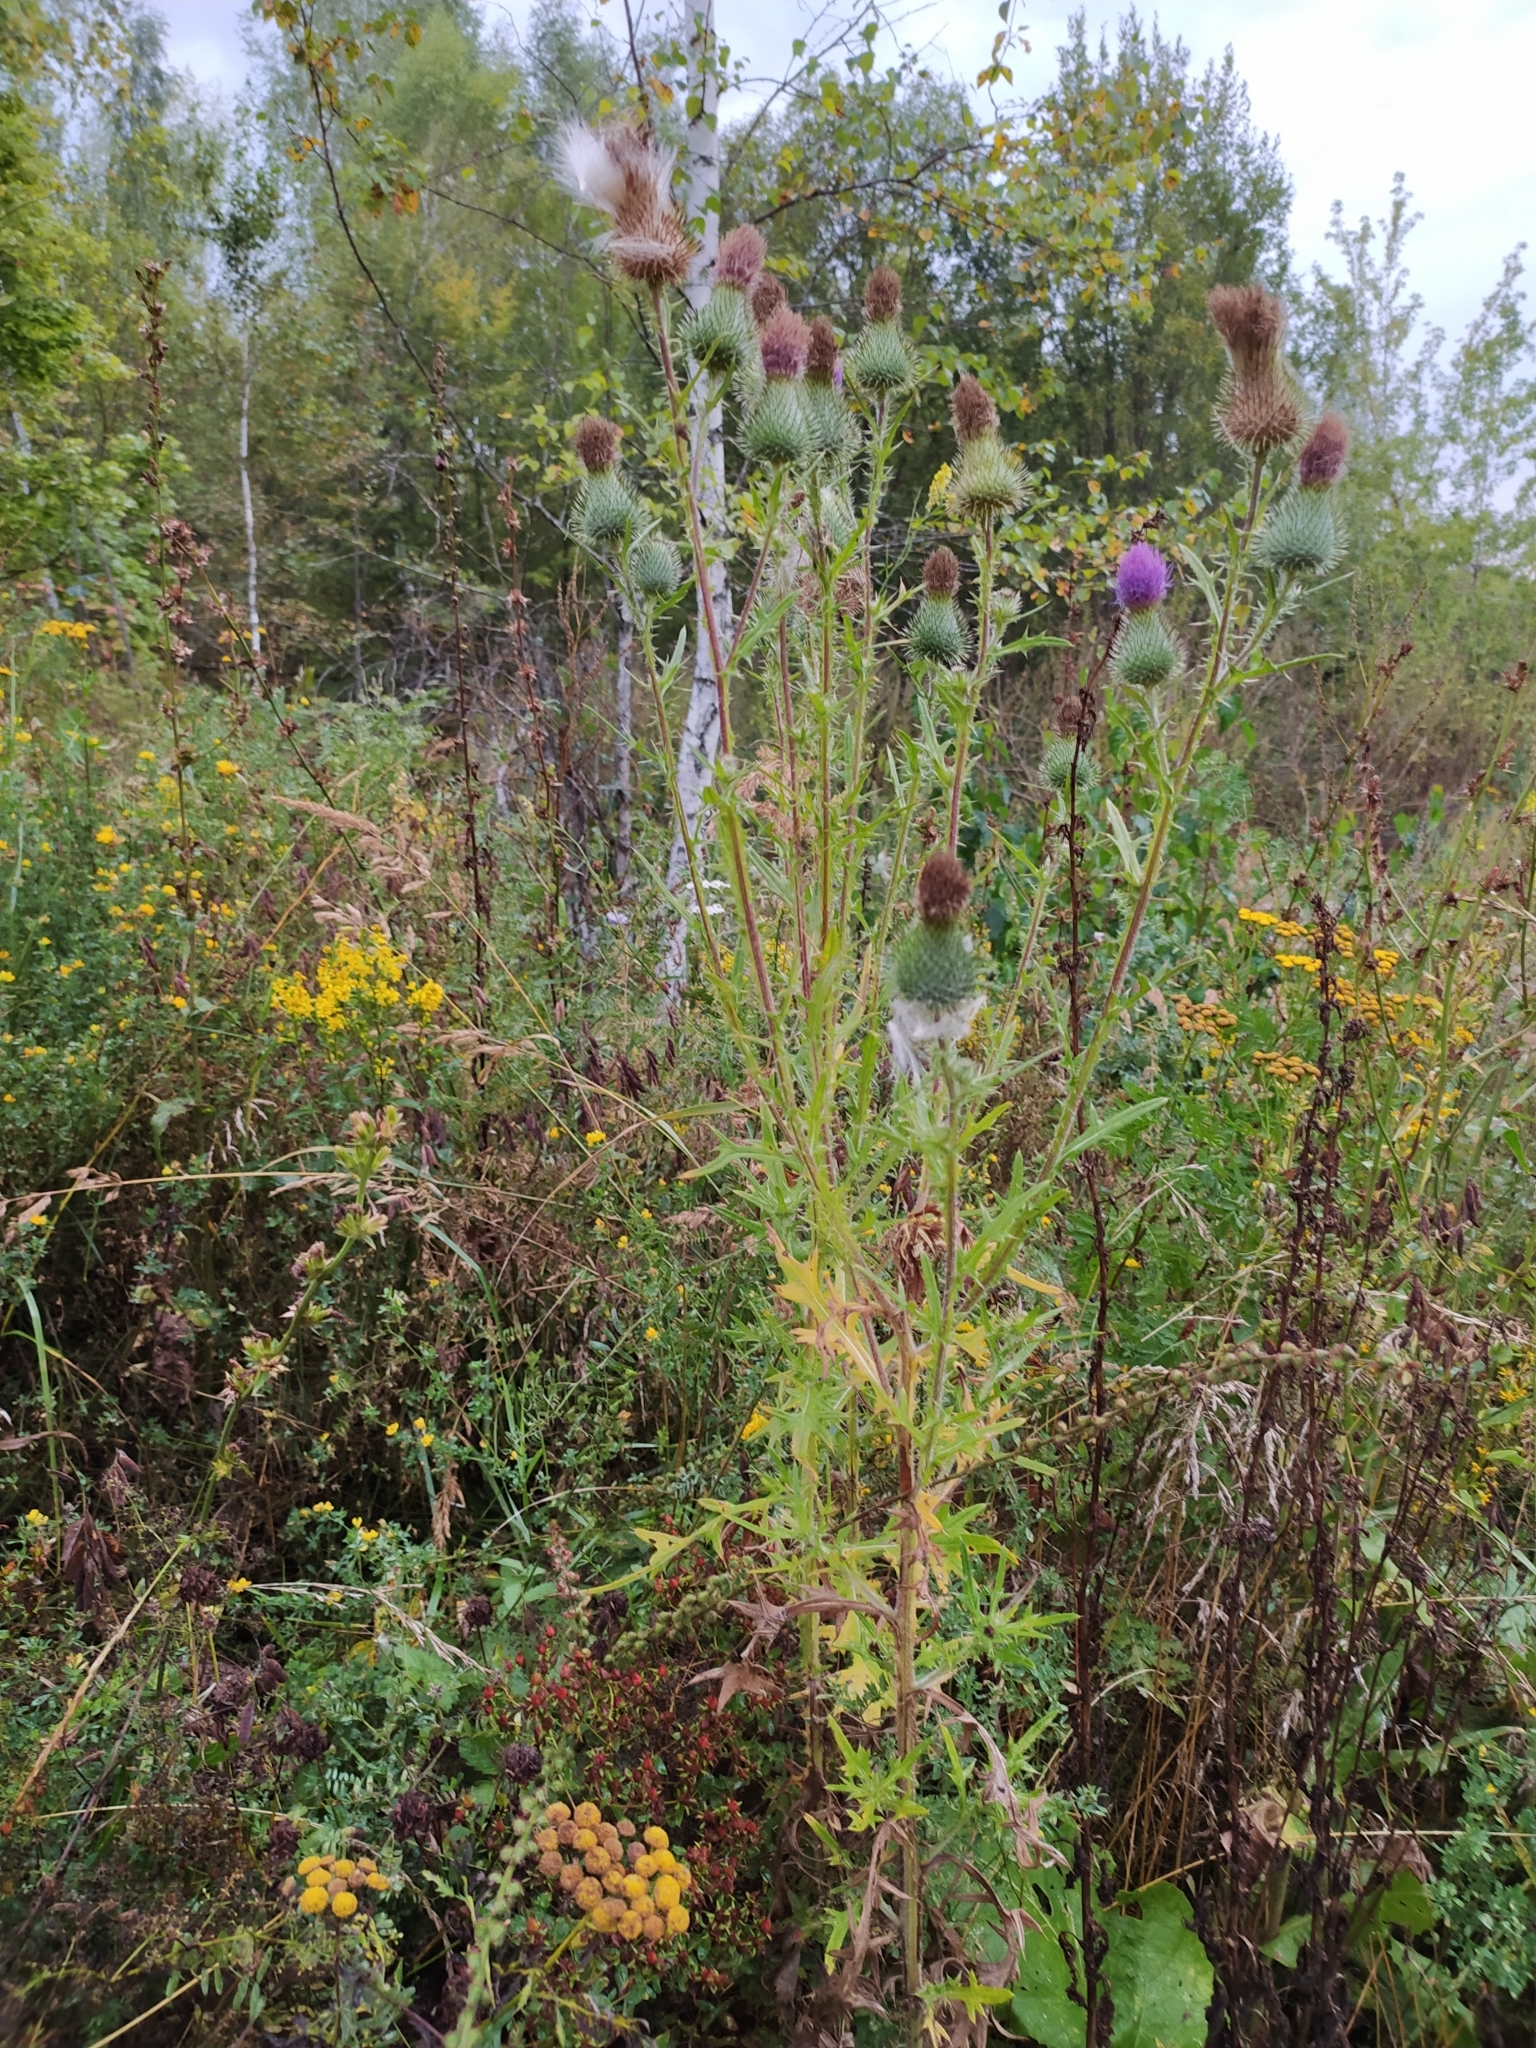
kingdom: Plantae
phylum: Tracheophyta
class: Magnoliopsida
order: Asterales
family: Asteraceae
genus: Cirsium
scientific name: Cirsium vulgare
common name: Bull thistle
